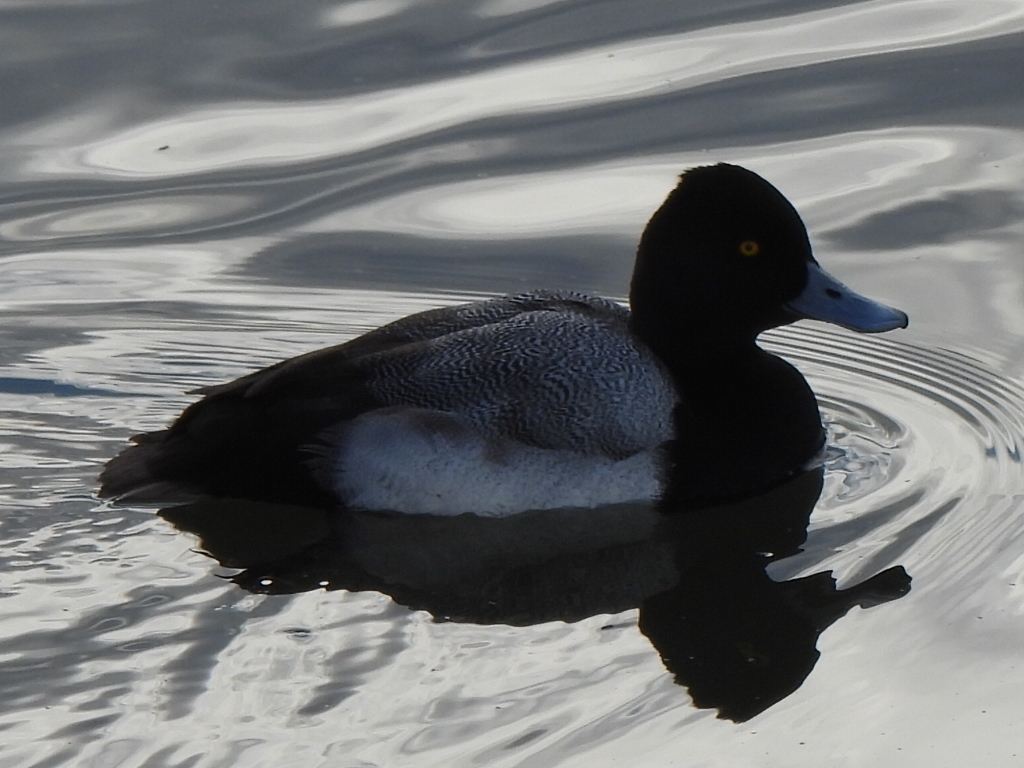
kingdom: Animalia
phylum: Chordata
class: Aves
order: Anseriformes
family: Anatidae
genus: Aythya
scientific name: Aythya affinis
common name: Lesser scaup
